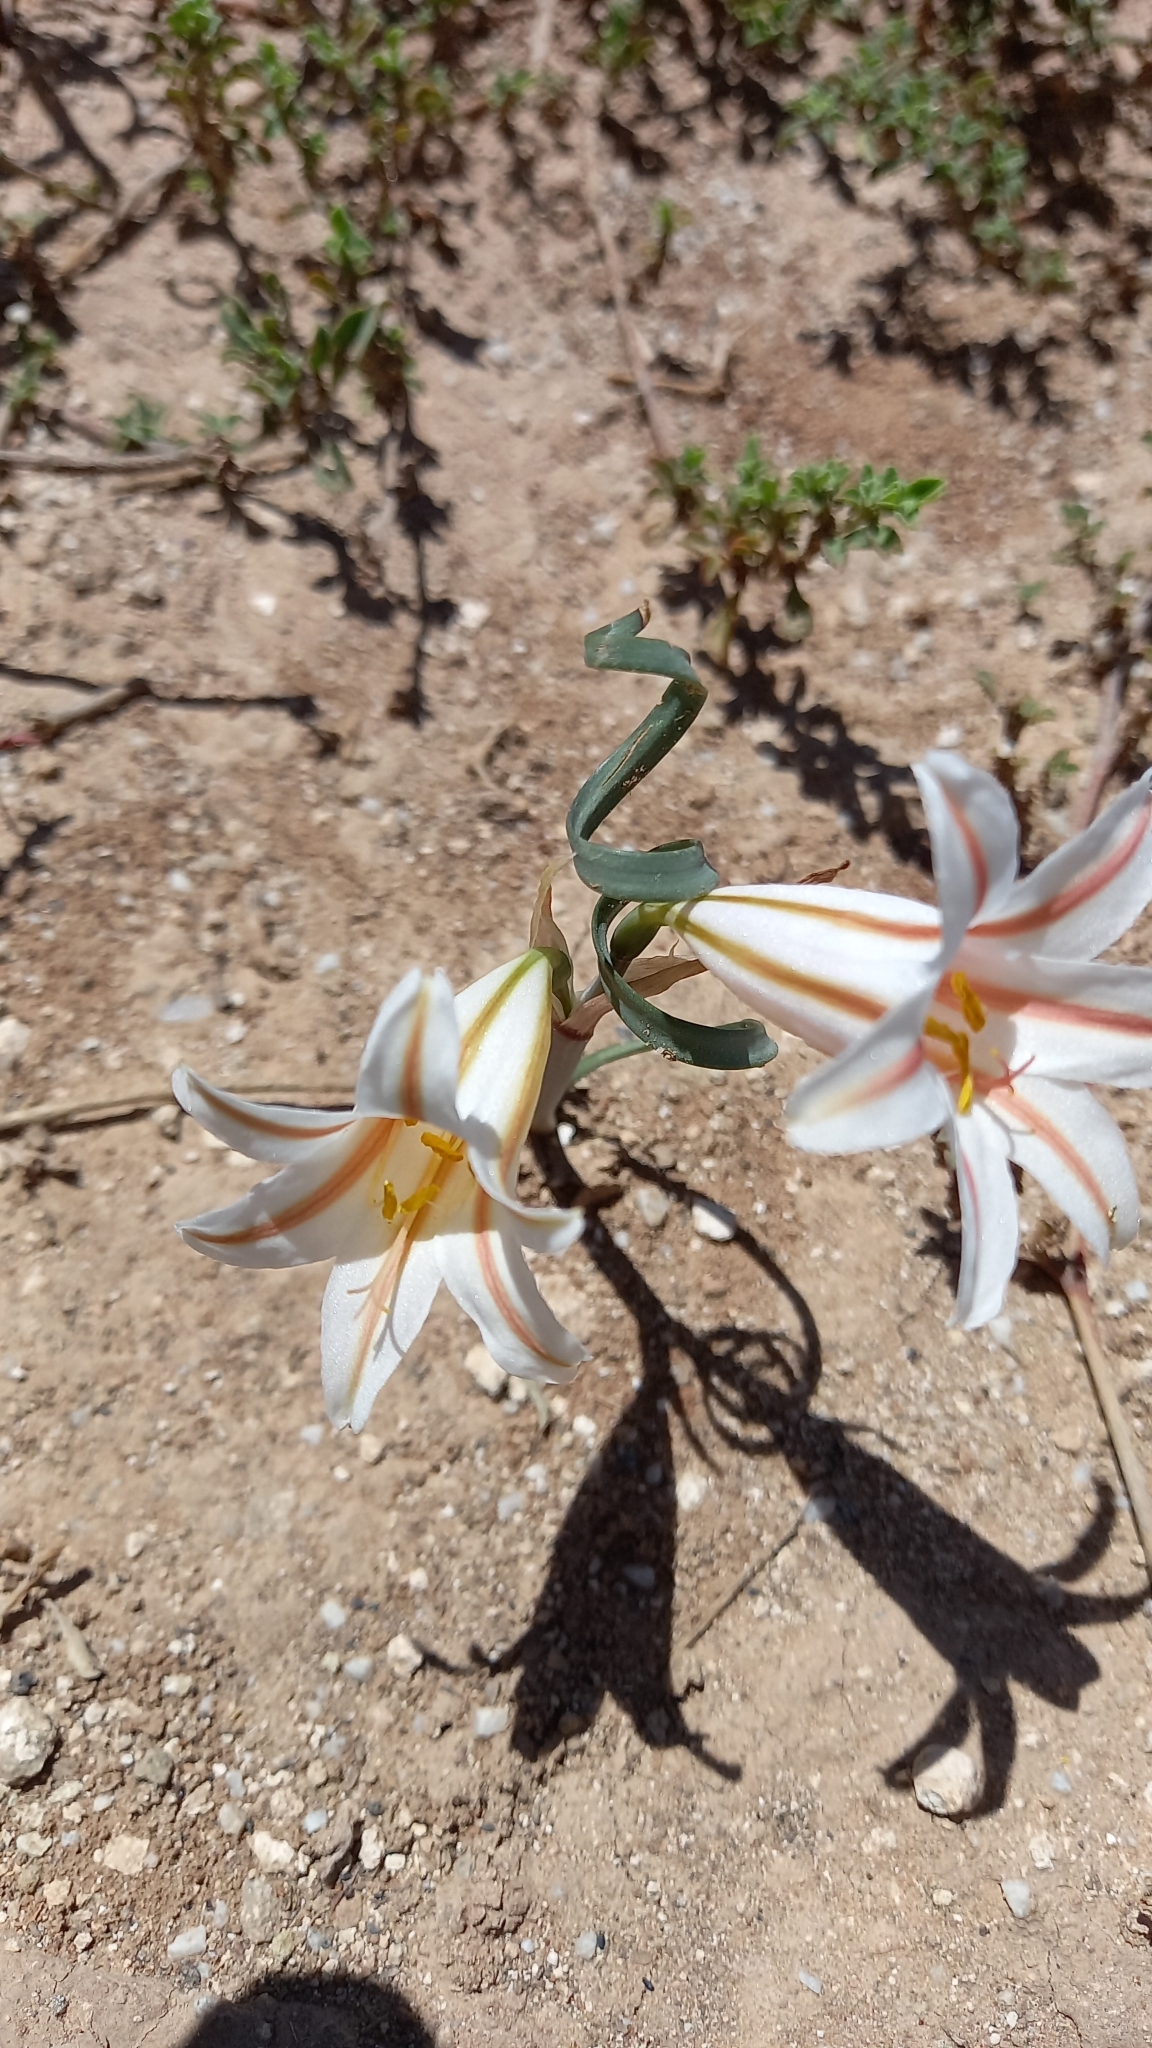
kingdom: Plantae
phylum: Tracheophyta
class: Liliopsida
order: Asparagales
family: Amaryllidaceae
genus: Cyrtanthus
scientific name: Cyrtanthus helictus
